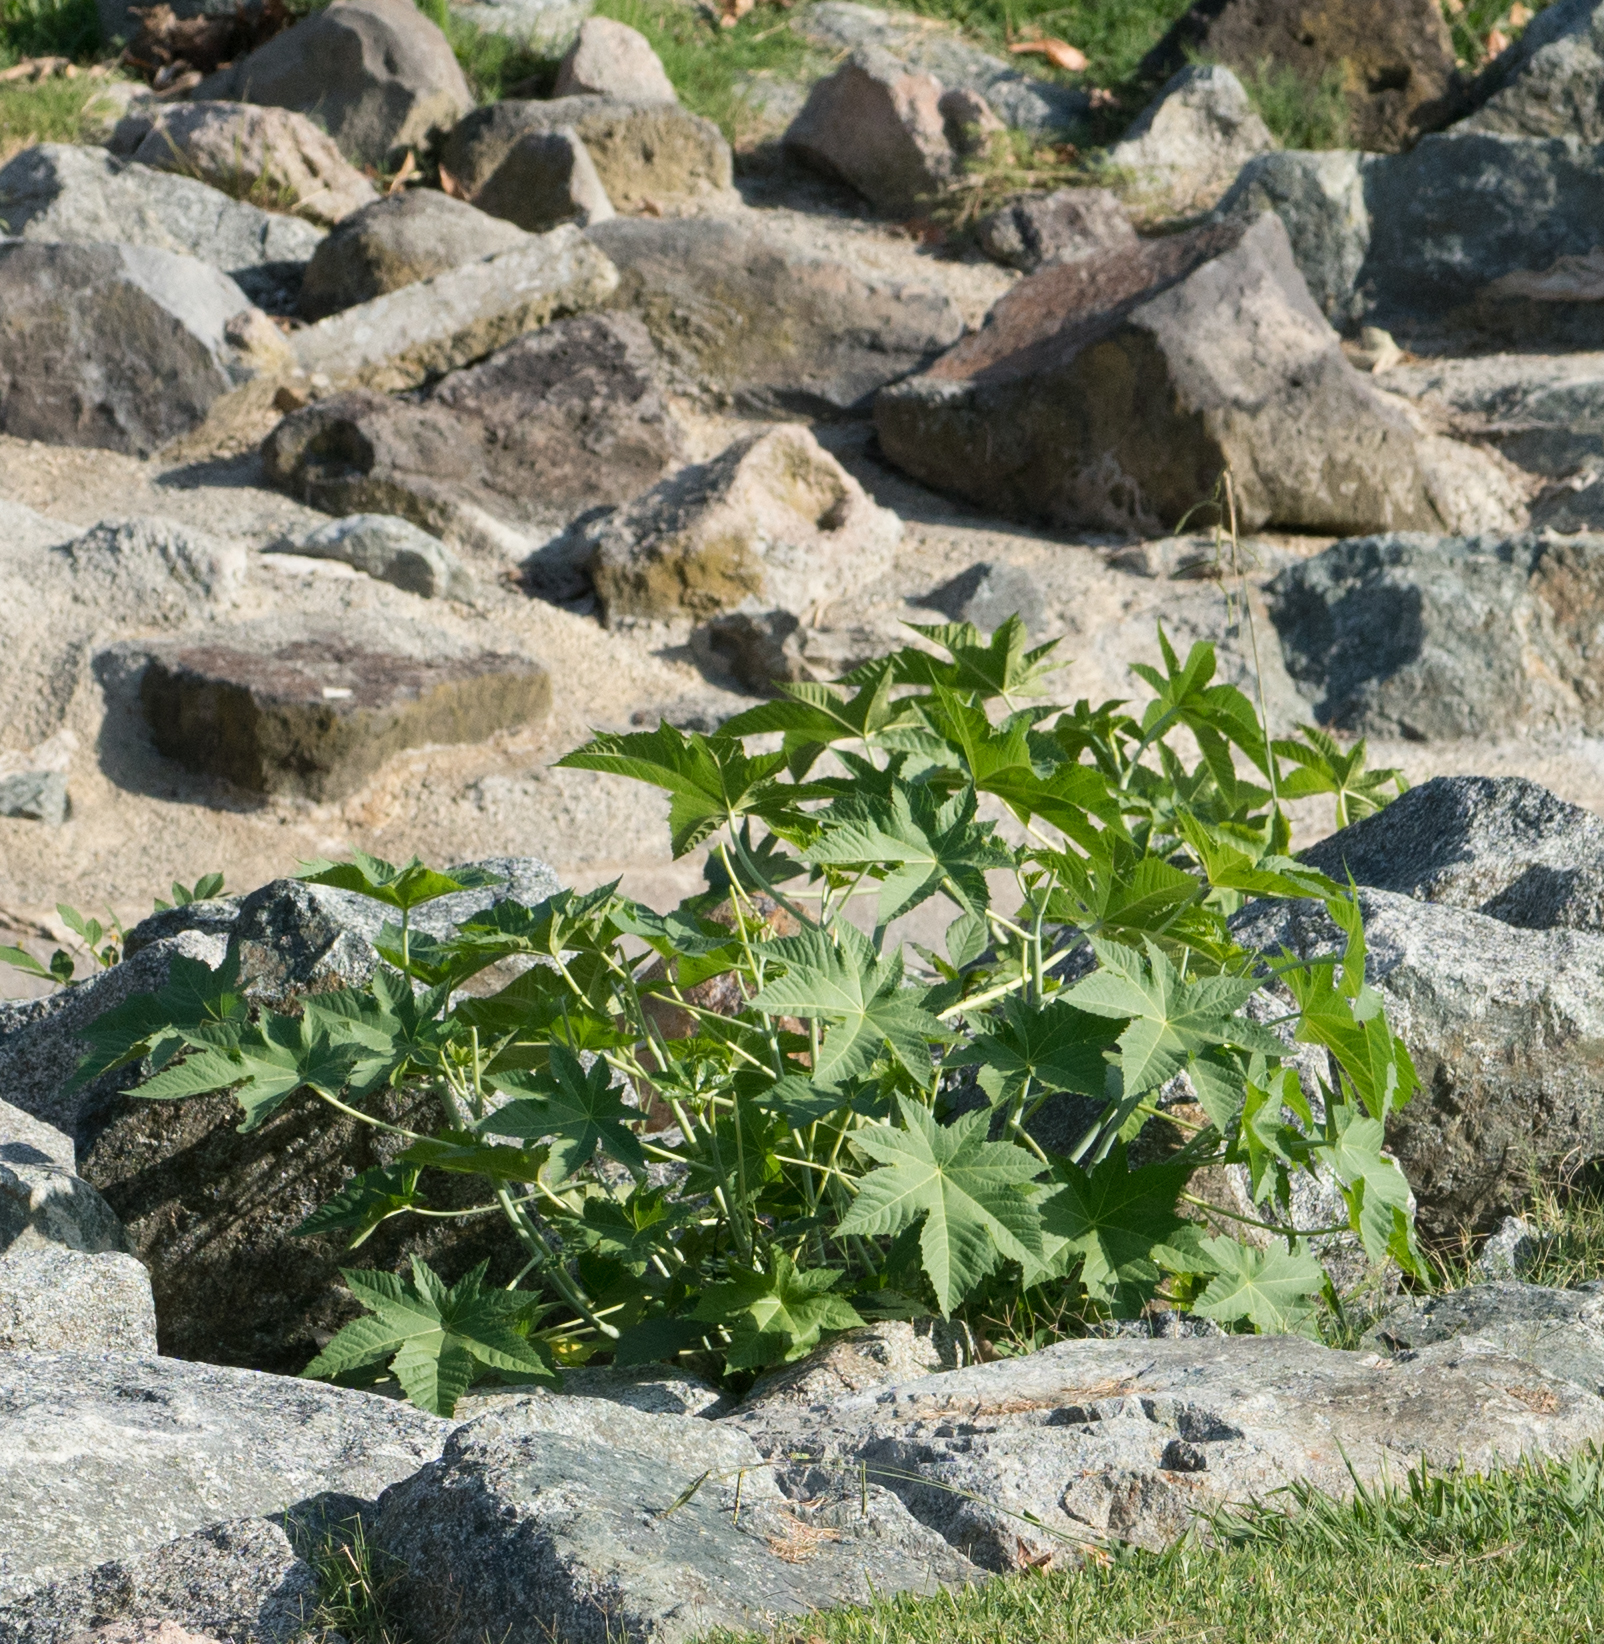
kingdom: Plantae
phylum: Tracheophyta
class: Magnoliopsida
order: Malpighiales
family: Euphorbiaceae
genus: Ricinus
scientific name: Ricinus communis
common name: Castor-oil-plant
